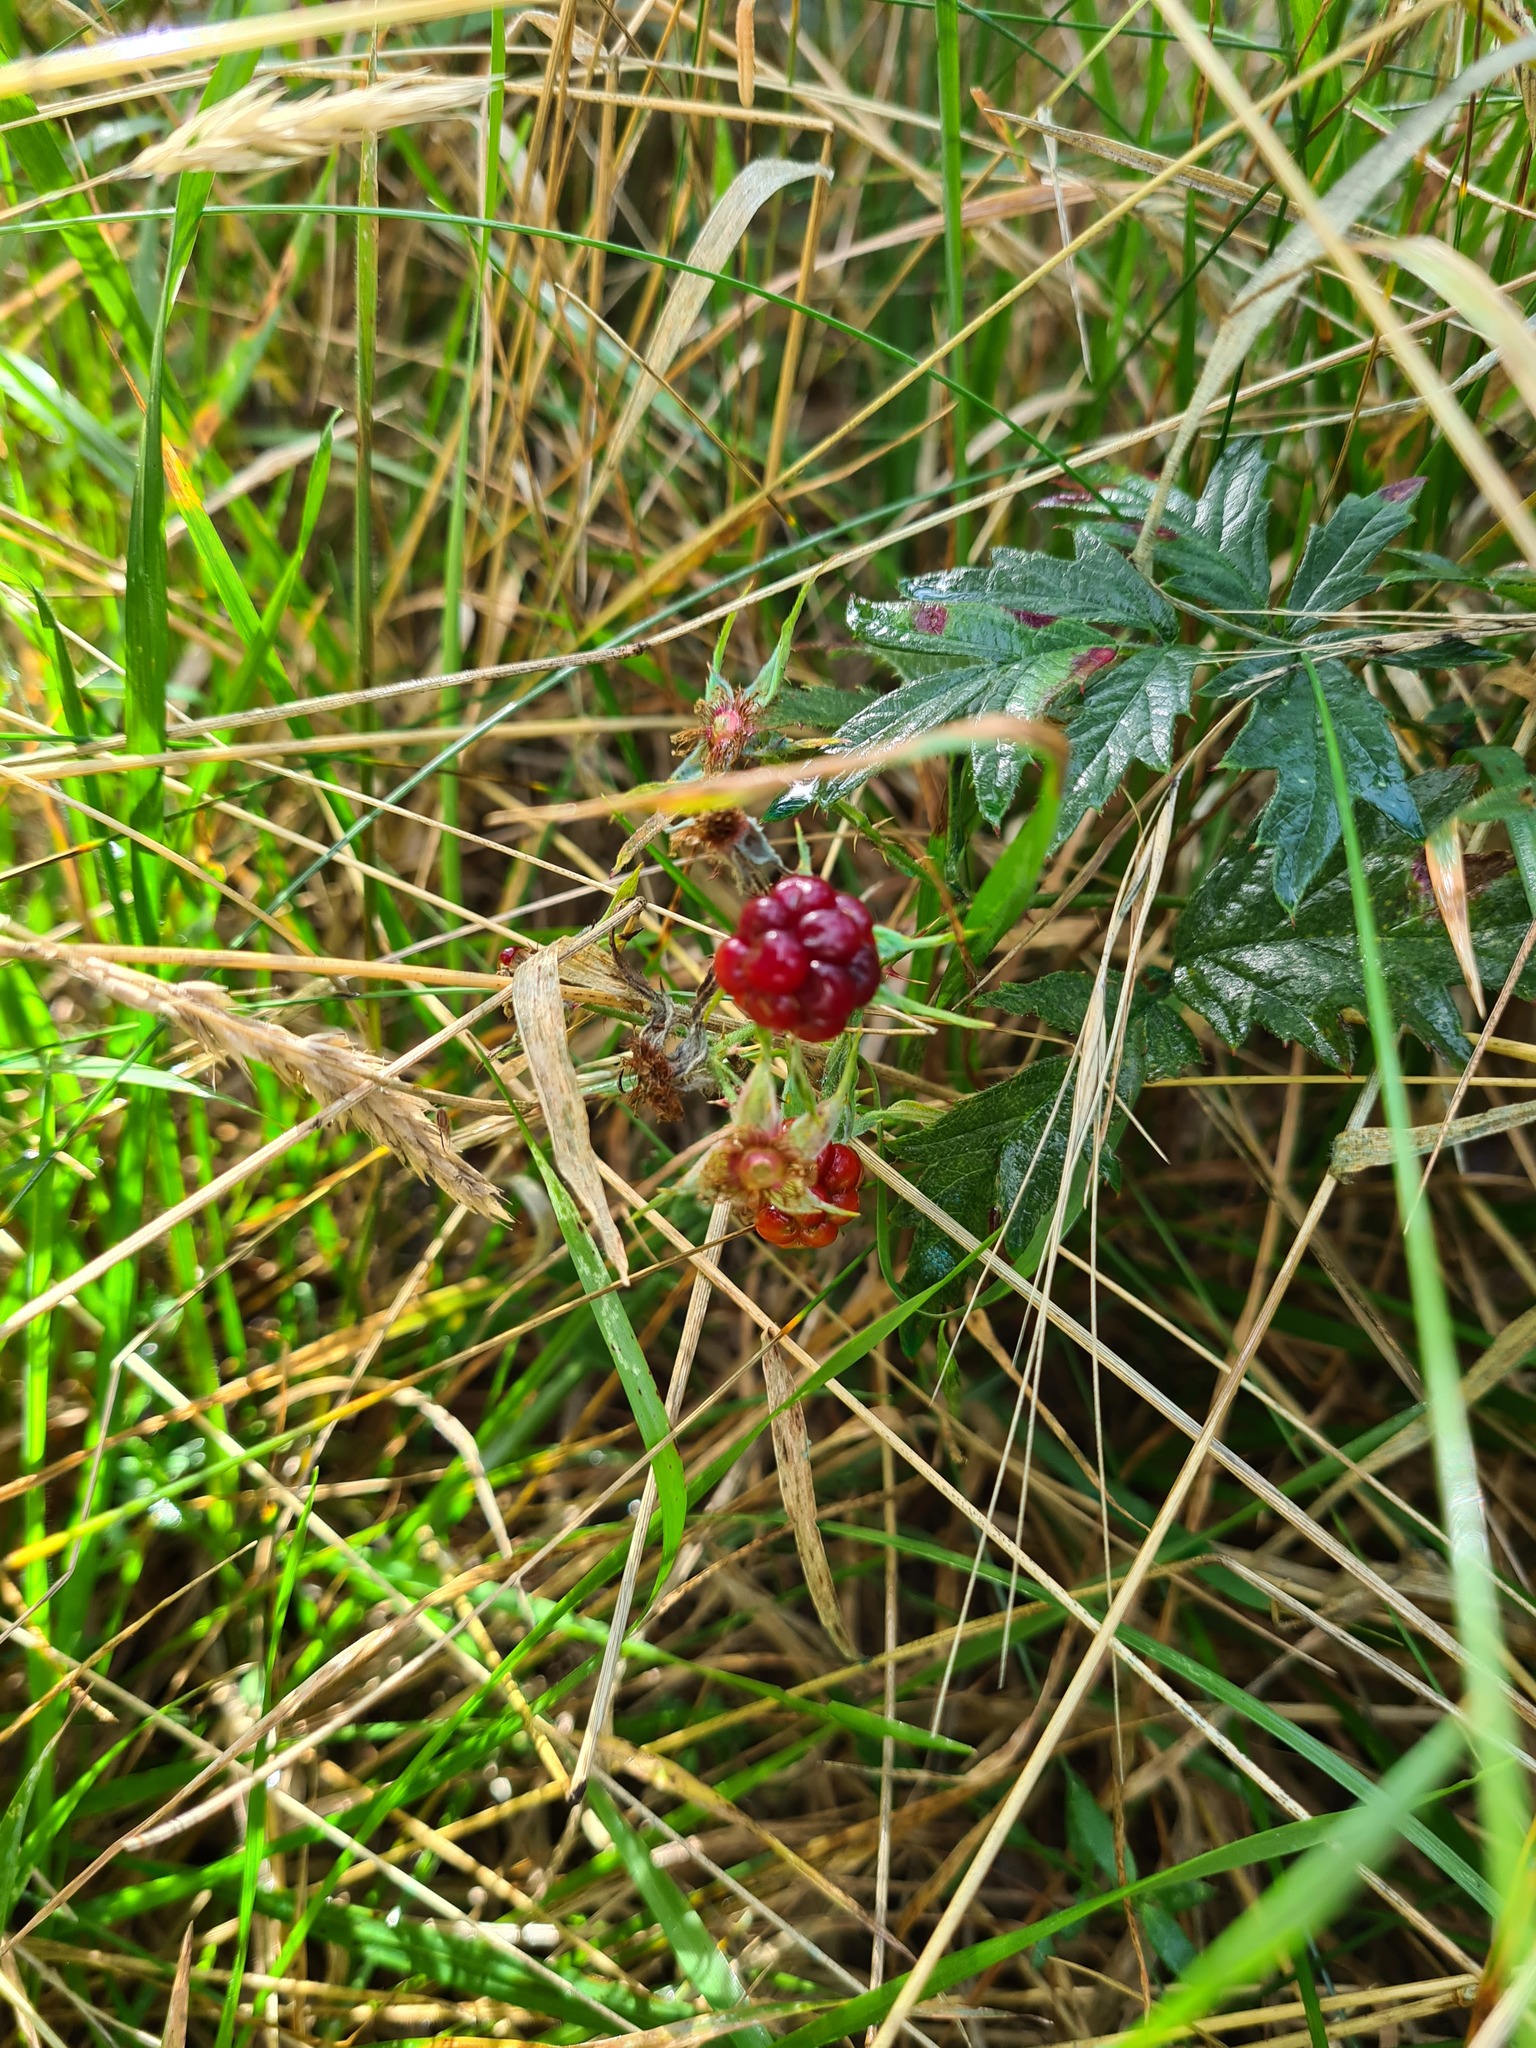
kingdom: Plantae
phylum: Tracheophyta
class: Magnoliopsida
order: Rosales
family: Rosaceae
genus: Rubus
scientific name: Rubus laciniatus
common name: Evergreen blackberry
